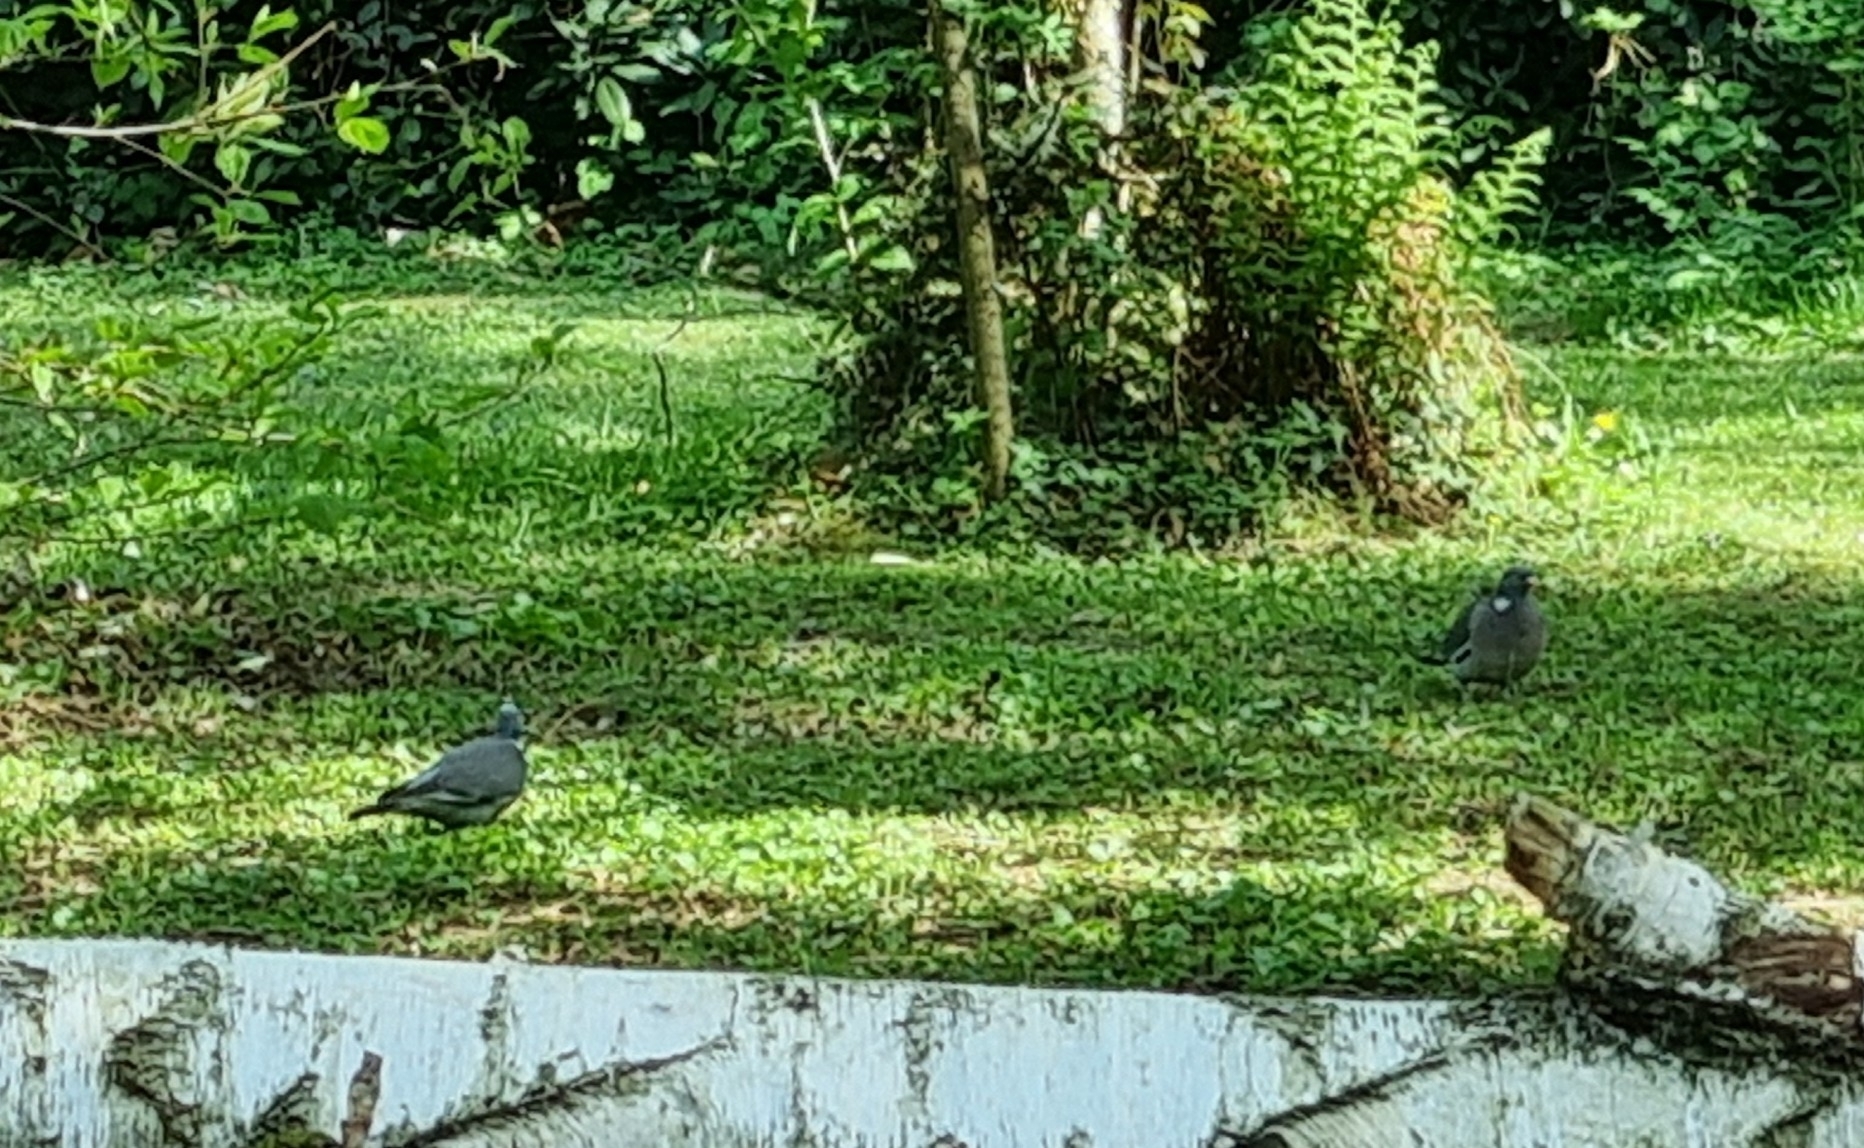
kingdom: Animalia
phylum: Chordata
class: Aves
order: Columbiformes
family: Columbidae
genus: Columba
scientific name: Columba palumbus
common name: Common wood pigeon
